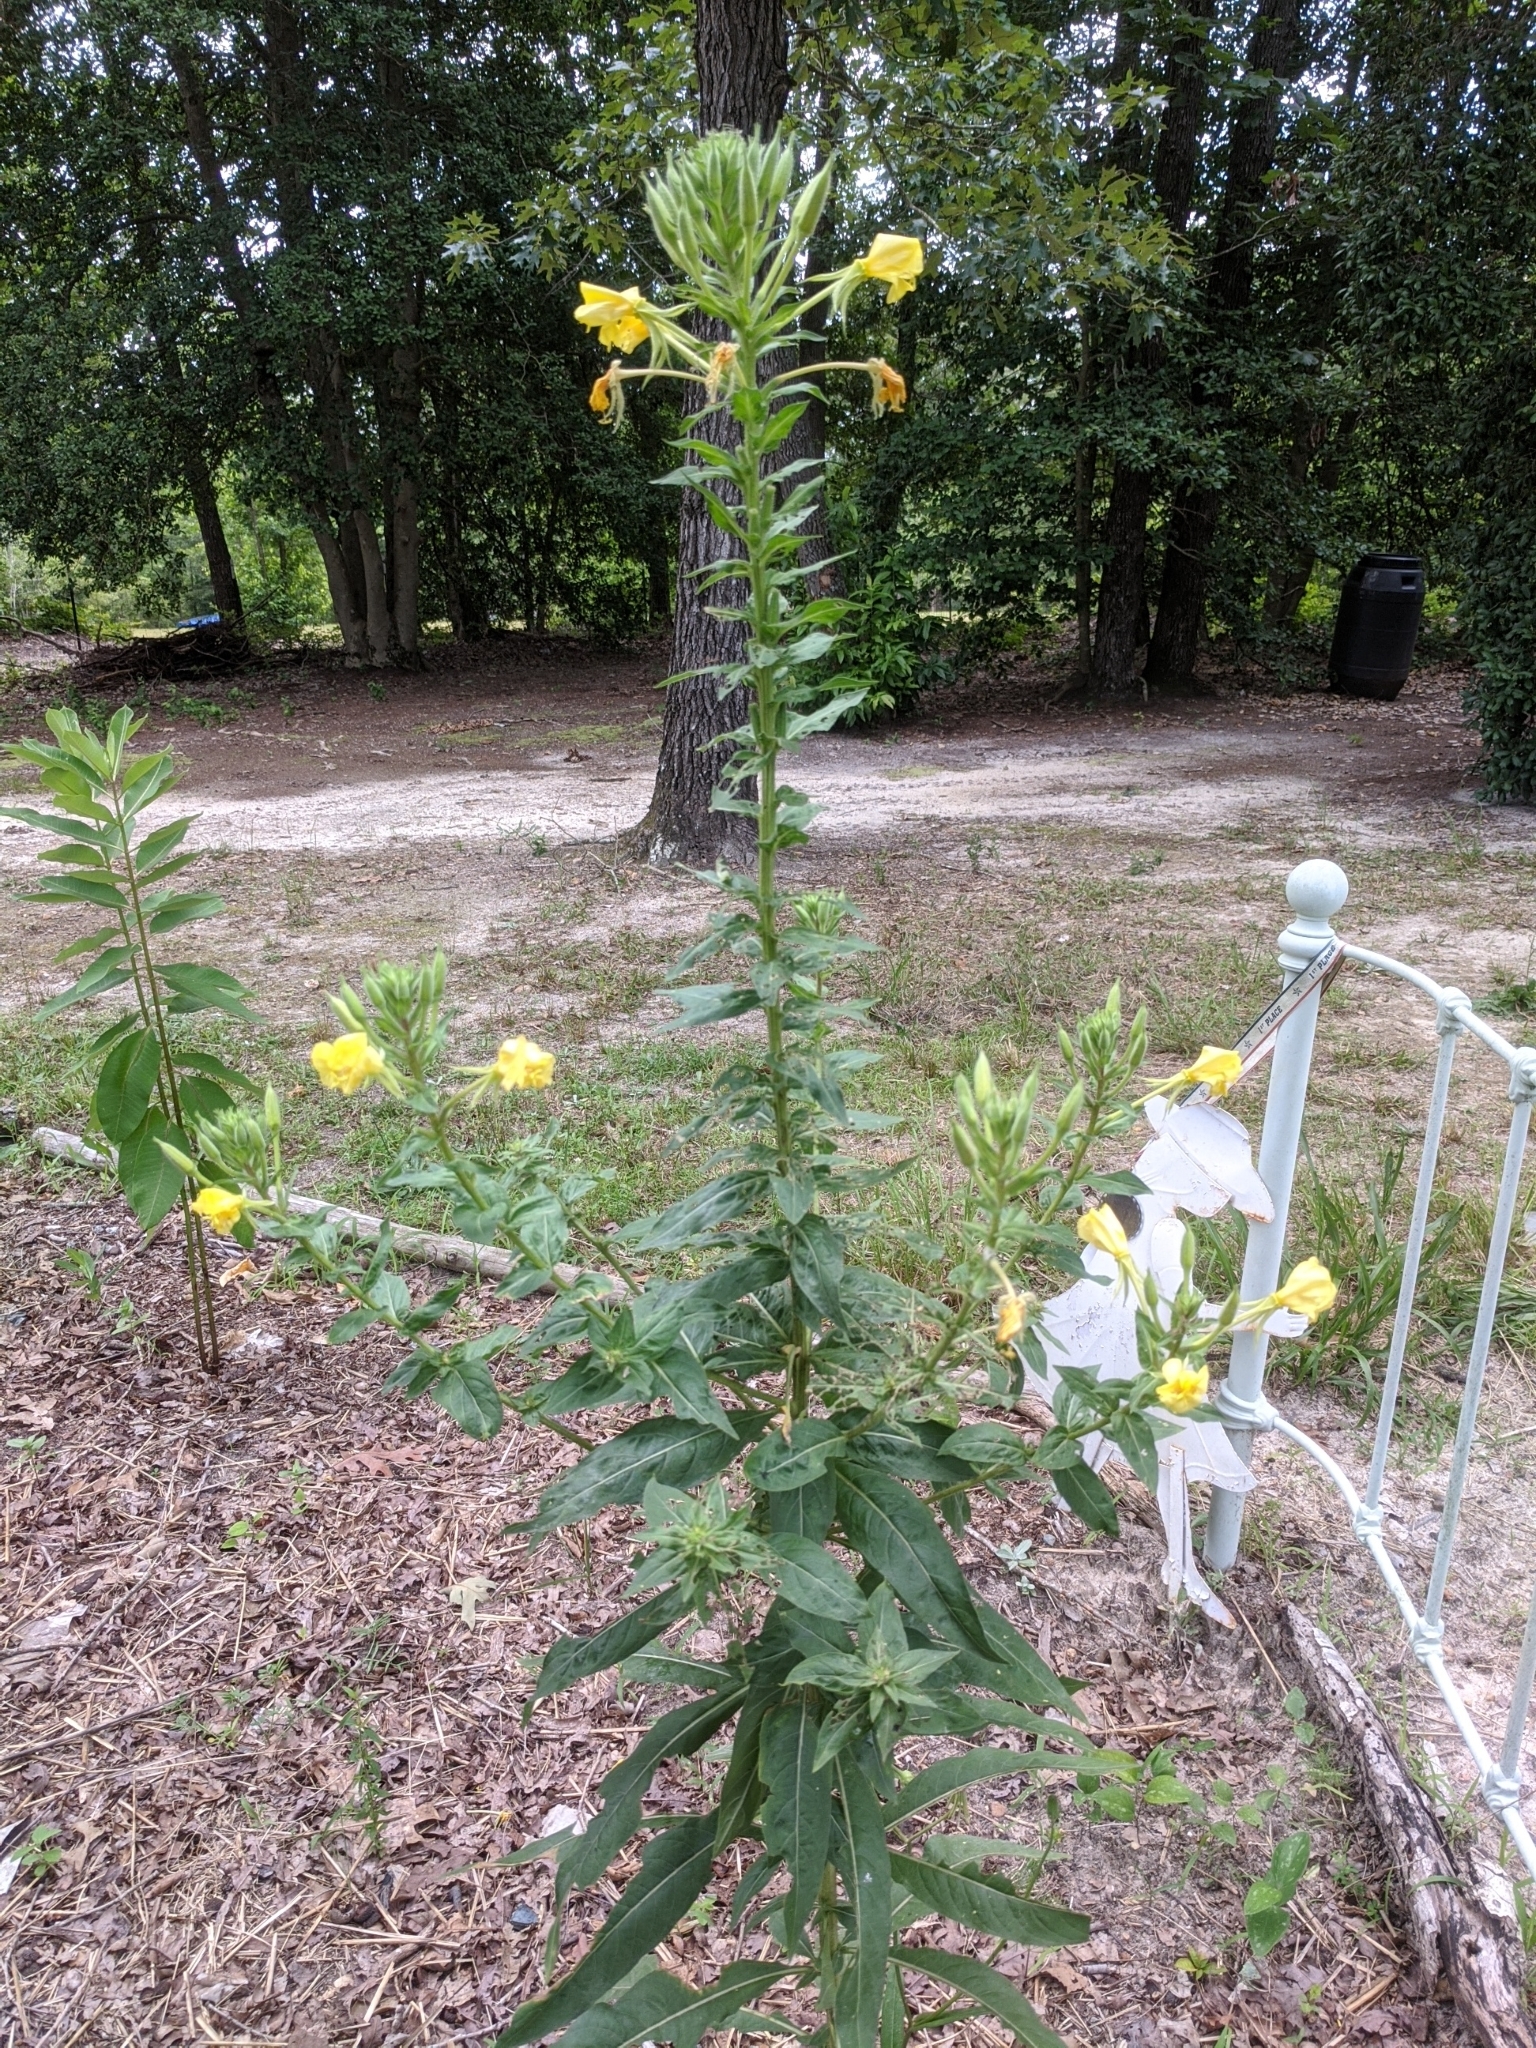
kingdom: Plantae
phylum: Tracheophyta
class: Magnoliopsida
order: Myrtales
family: Onagraceae
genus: Oenothera
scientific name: Oenothera biennis
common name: Common evening-primrose
